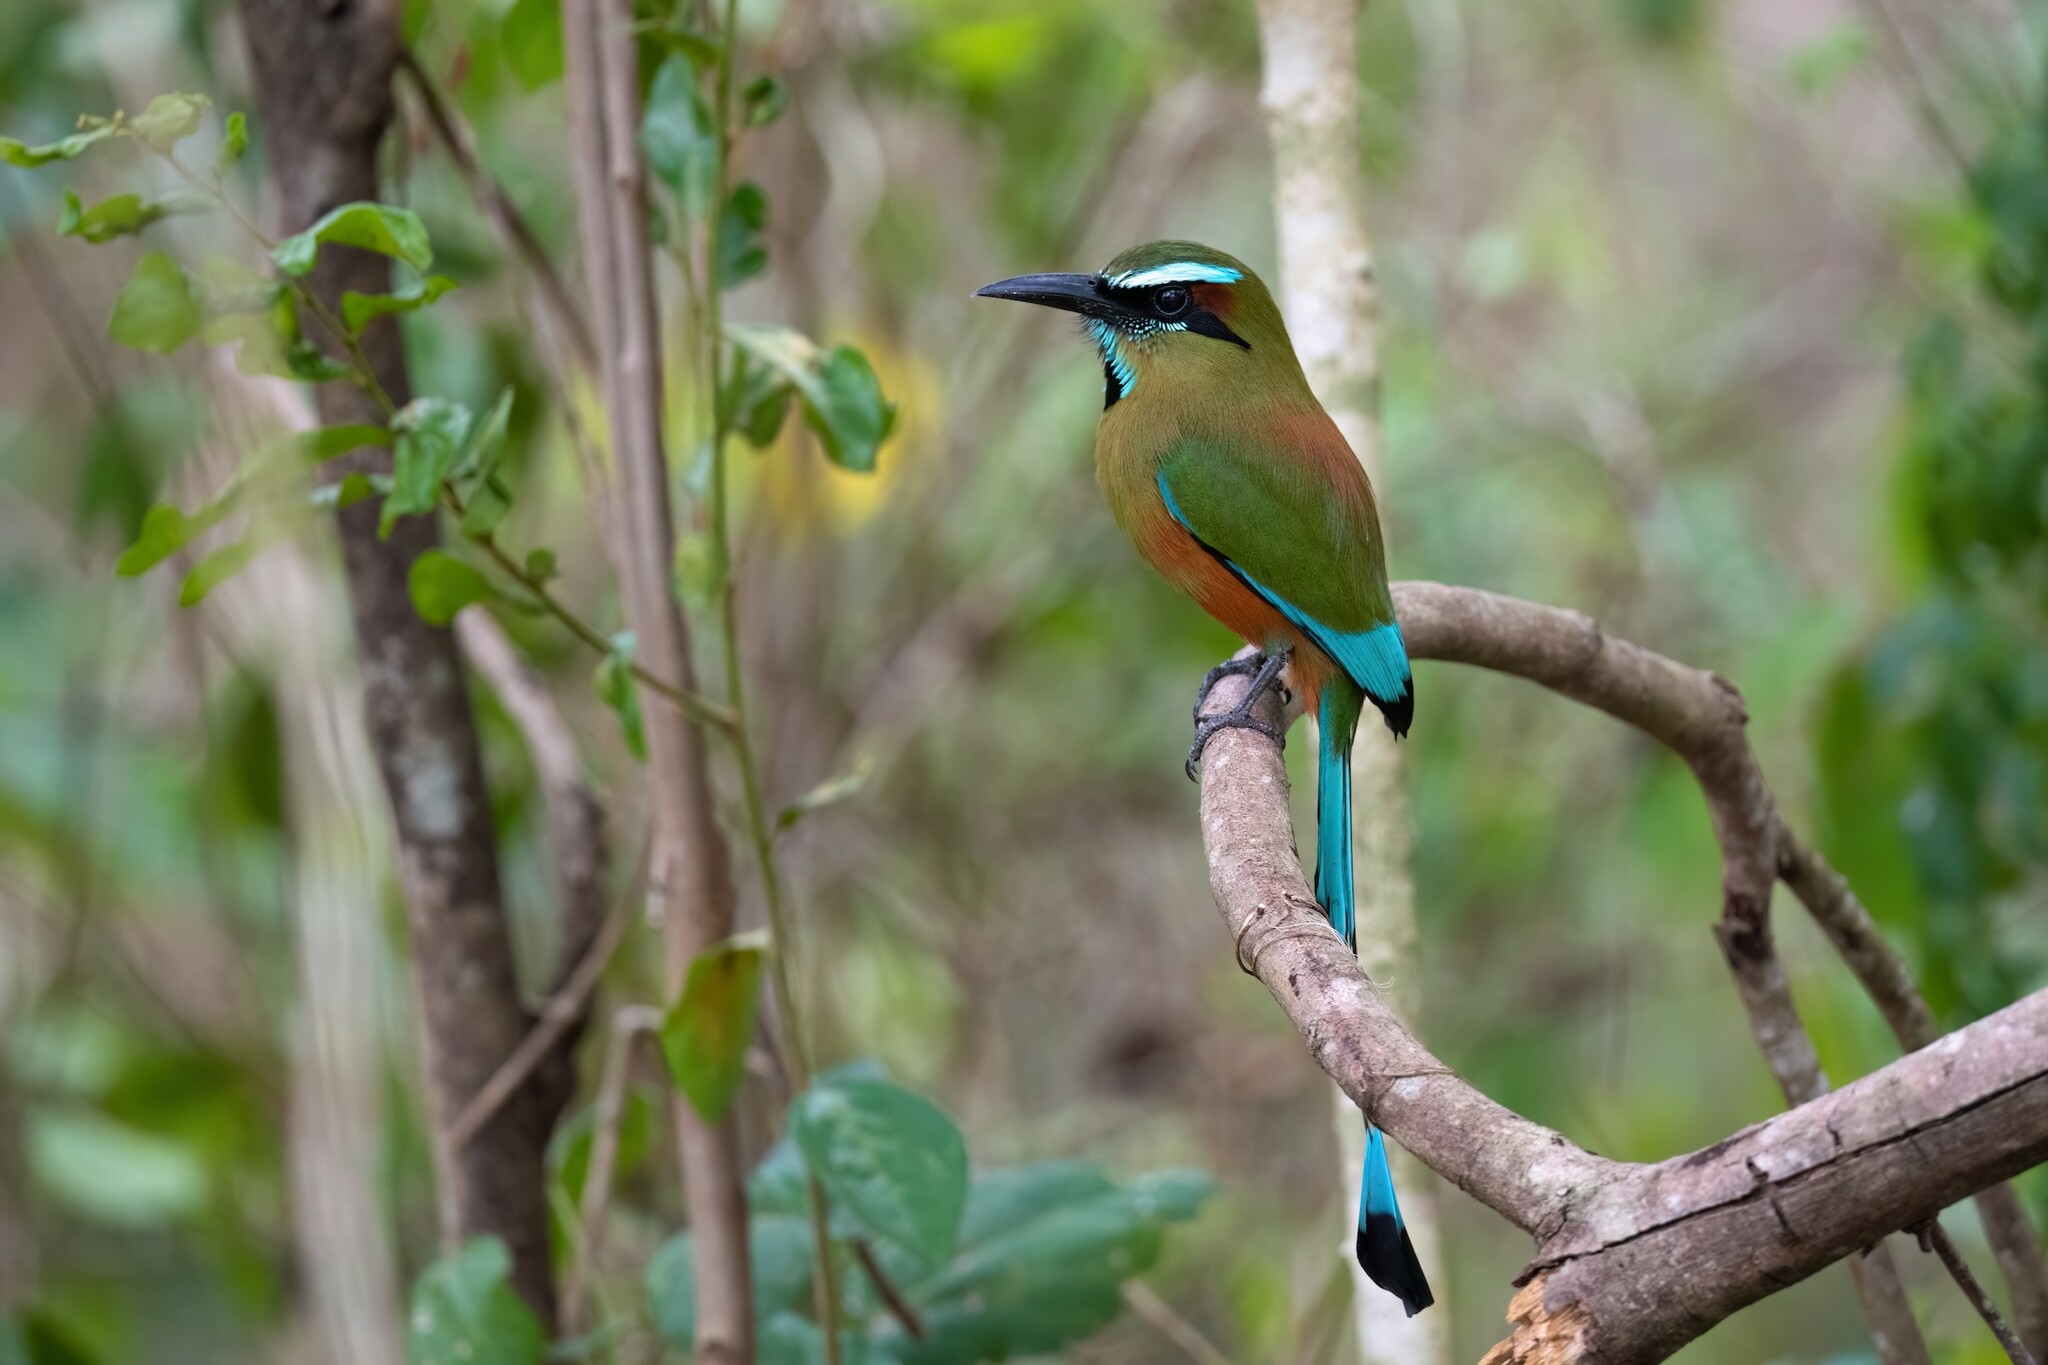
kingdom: Animalia
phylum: Chordata
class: Aves
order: Coraciiformes
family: Momotidae
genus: Eumomota
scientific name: Eumomota superciliosa
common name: Turquoise-browed motmot
